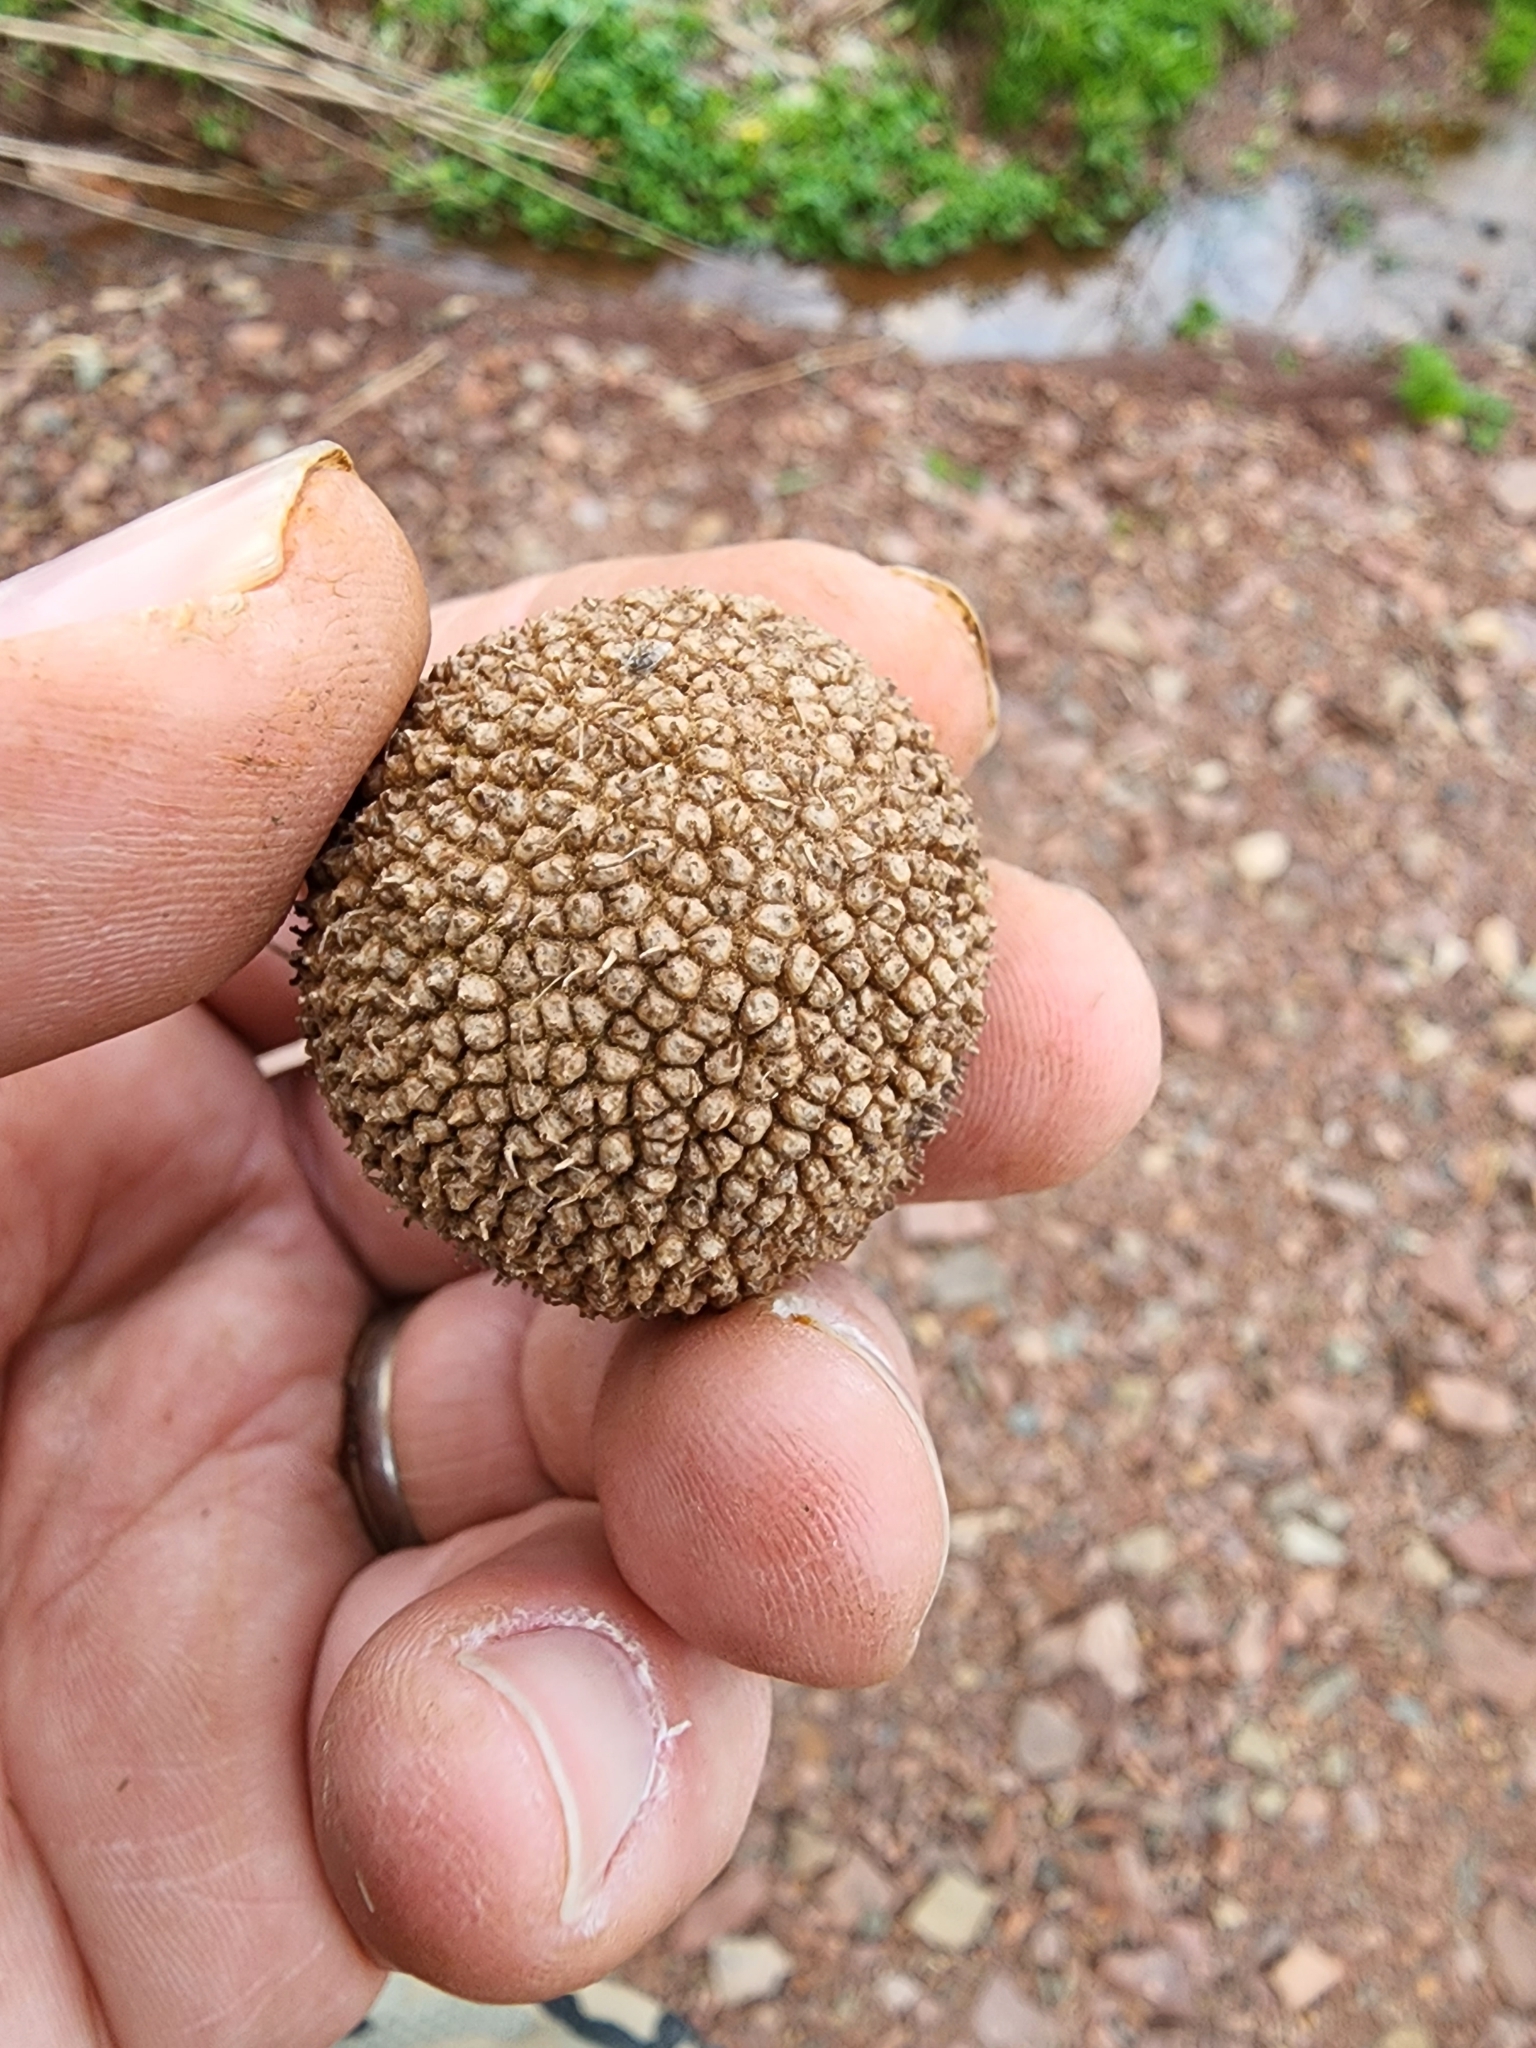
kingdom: Plantae
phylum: Tracheophyta
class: Magnoliopsida
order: Proteales
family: Platanaceae
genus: Platanus
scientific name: Platanus occidentalis
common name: American sycamore
